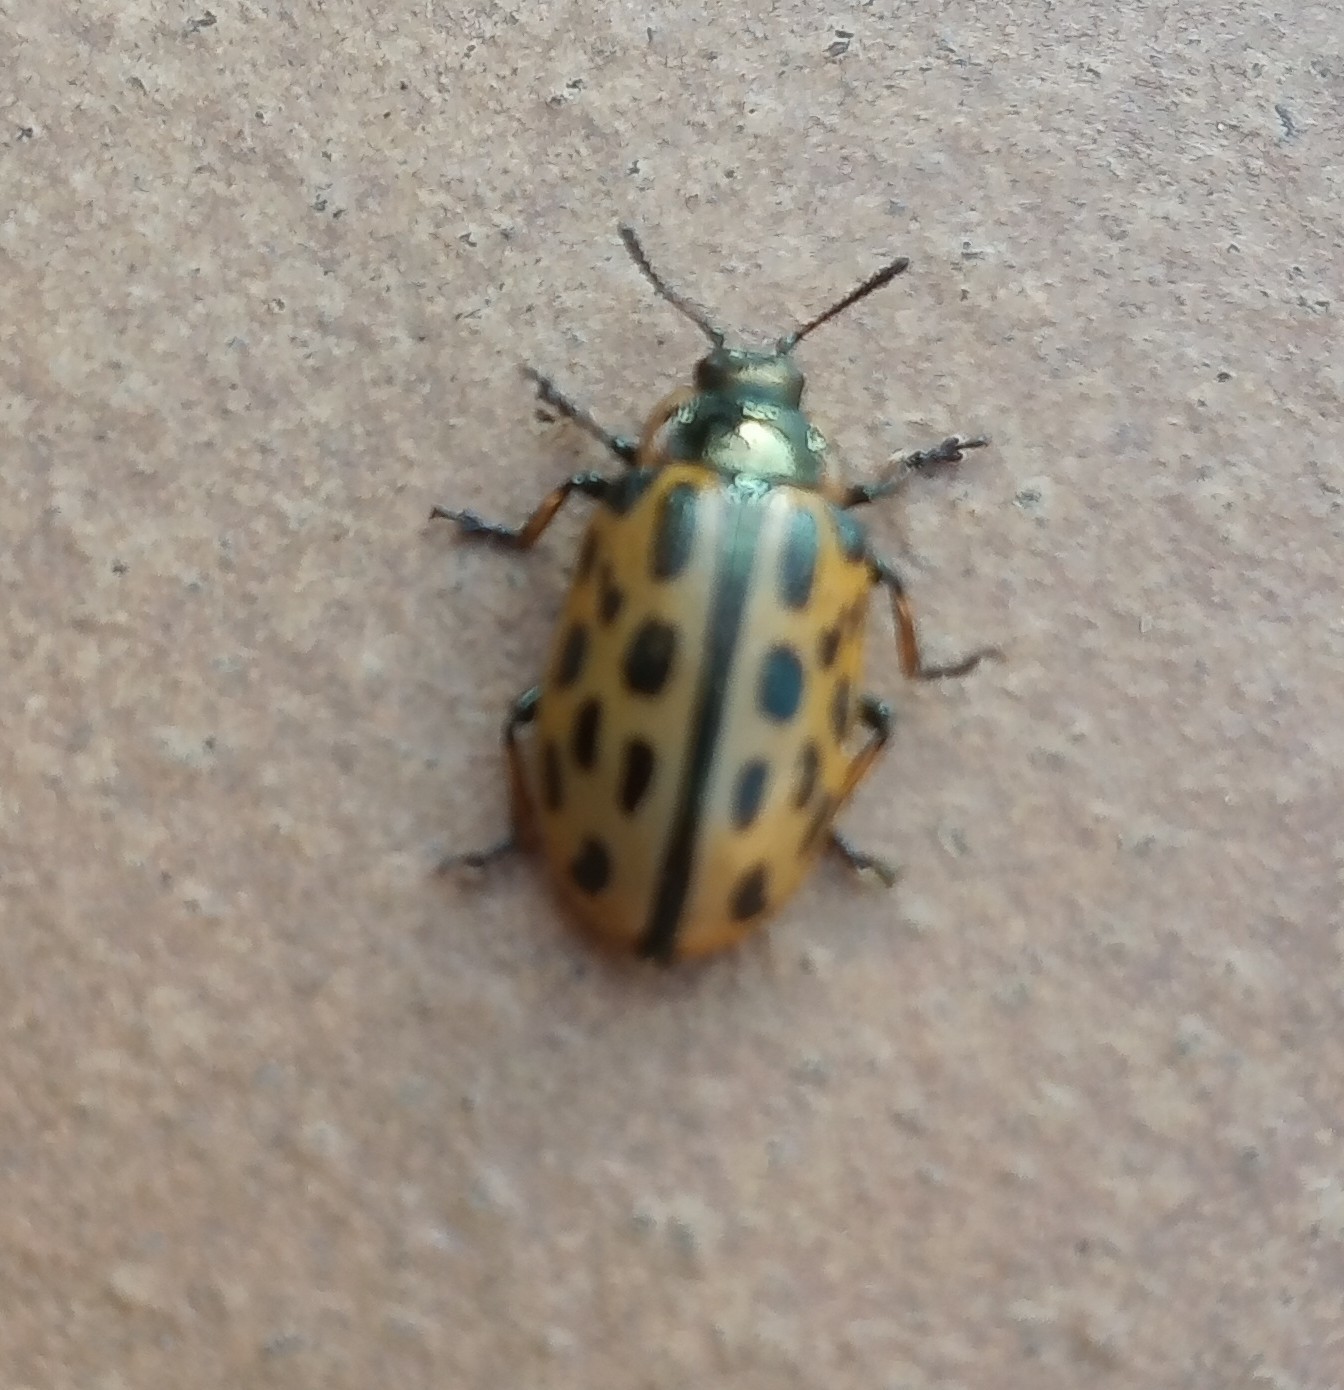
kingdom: Animalia
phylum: Arthropoda
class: Insecta
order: Coleoptera
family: Chrysomelidae
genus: Chrysomela
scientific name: Chrysomela vigintipunctata
